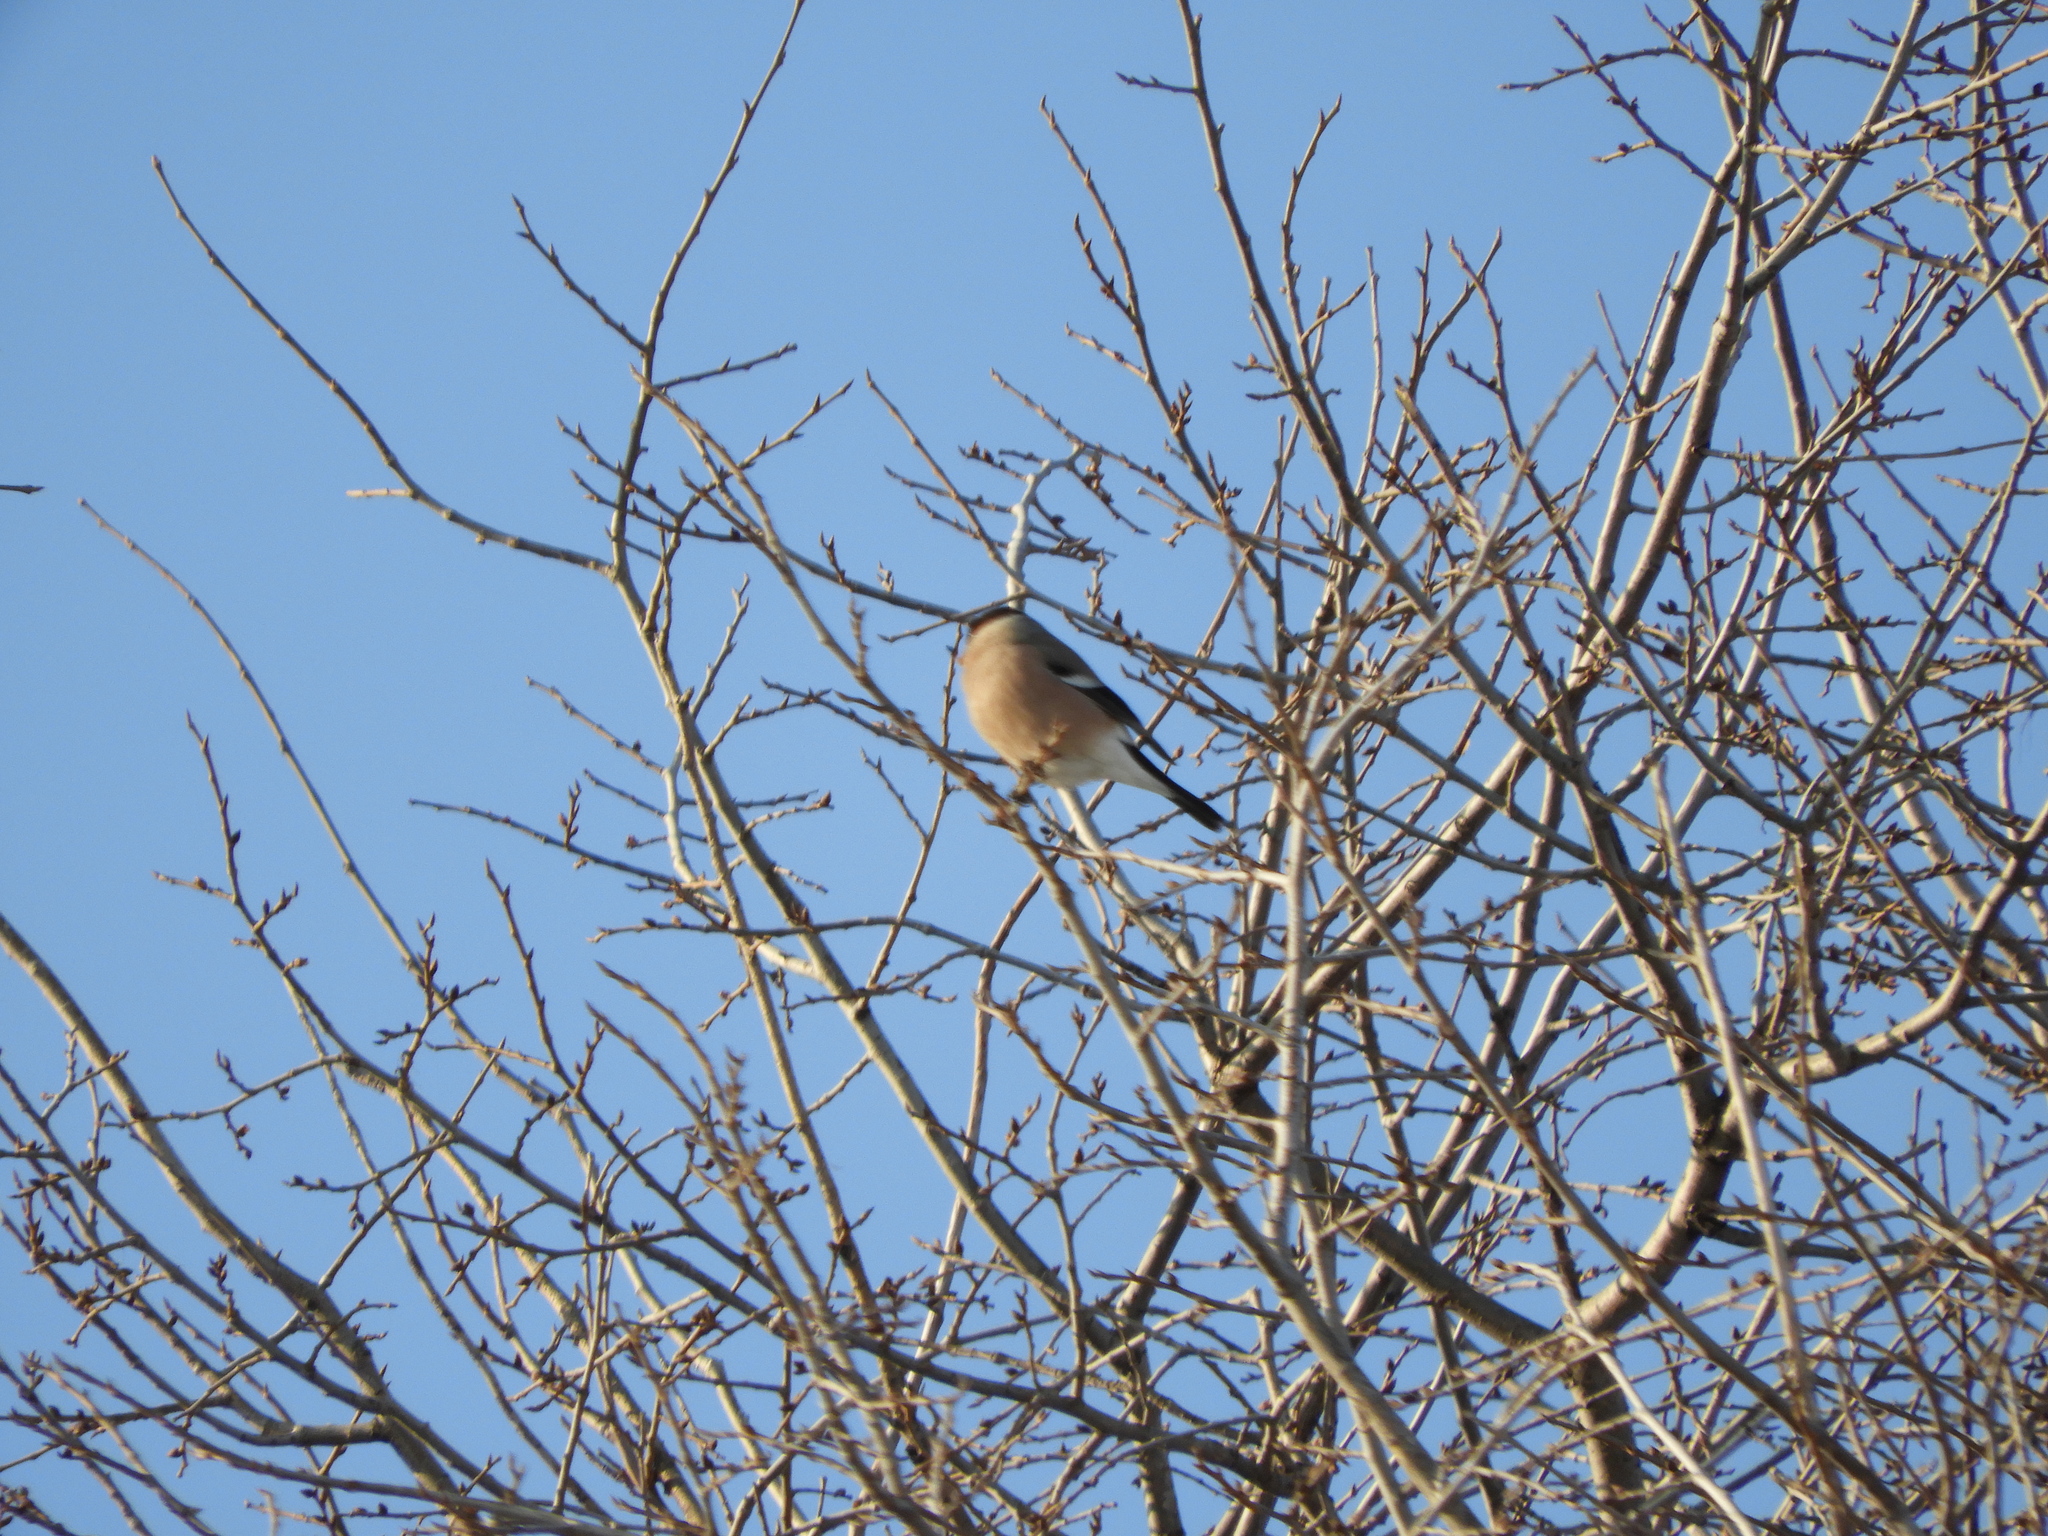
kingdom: Animalia
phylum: Chordata
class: Aves
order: Passeriformes
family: Fringillidae
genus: Pyrrhula
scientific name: Pyrrhula pyrrhula
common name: Eurasian bullfinch
